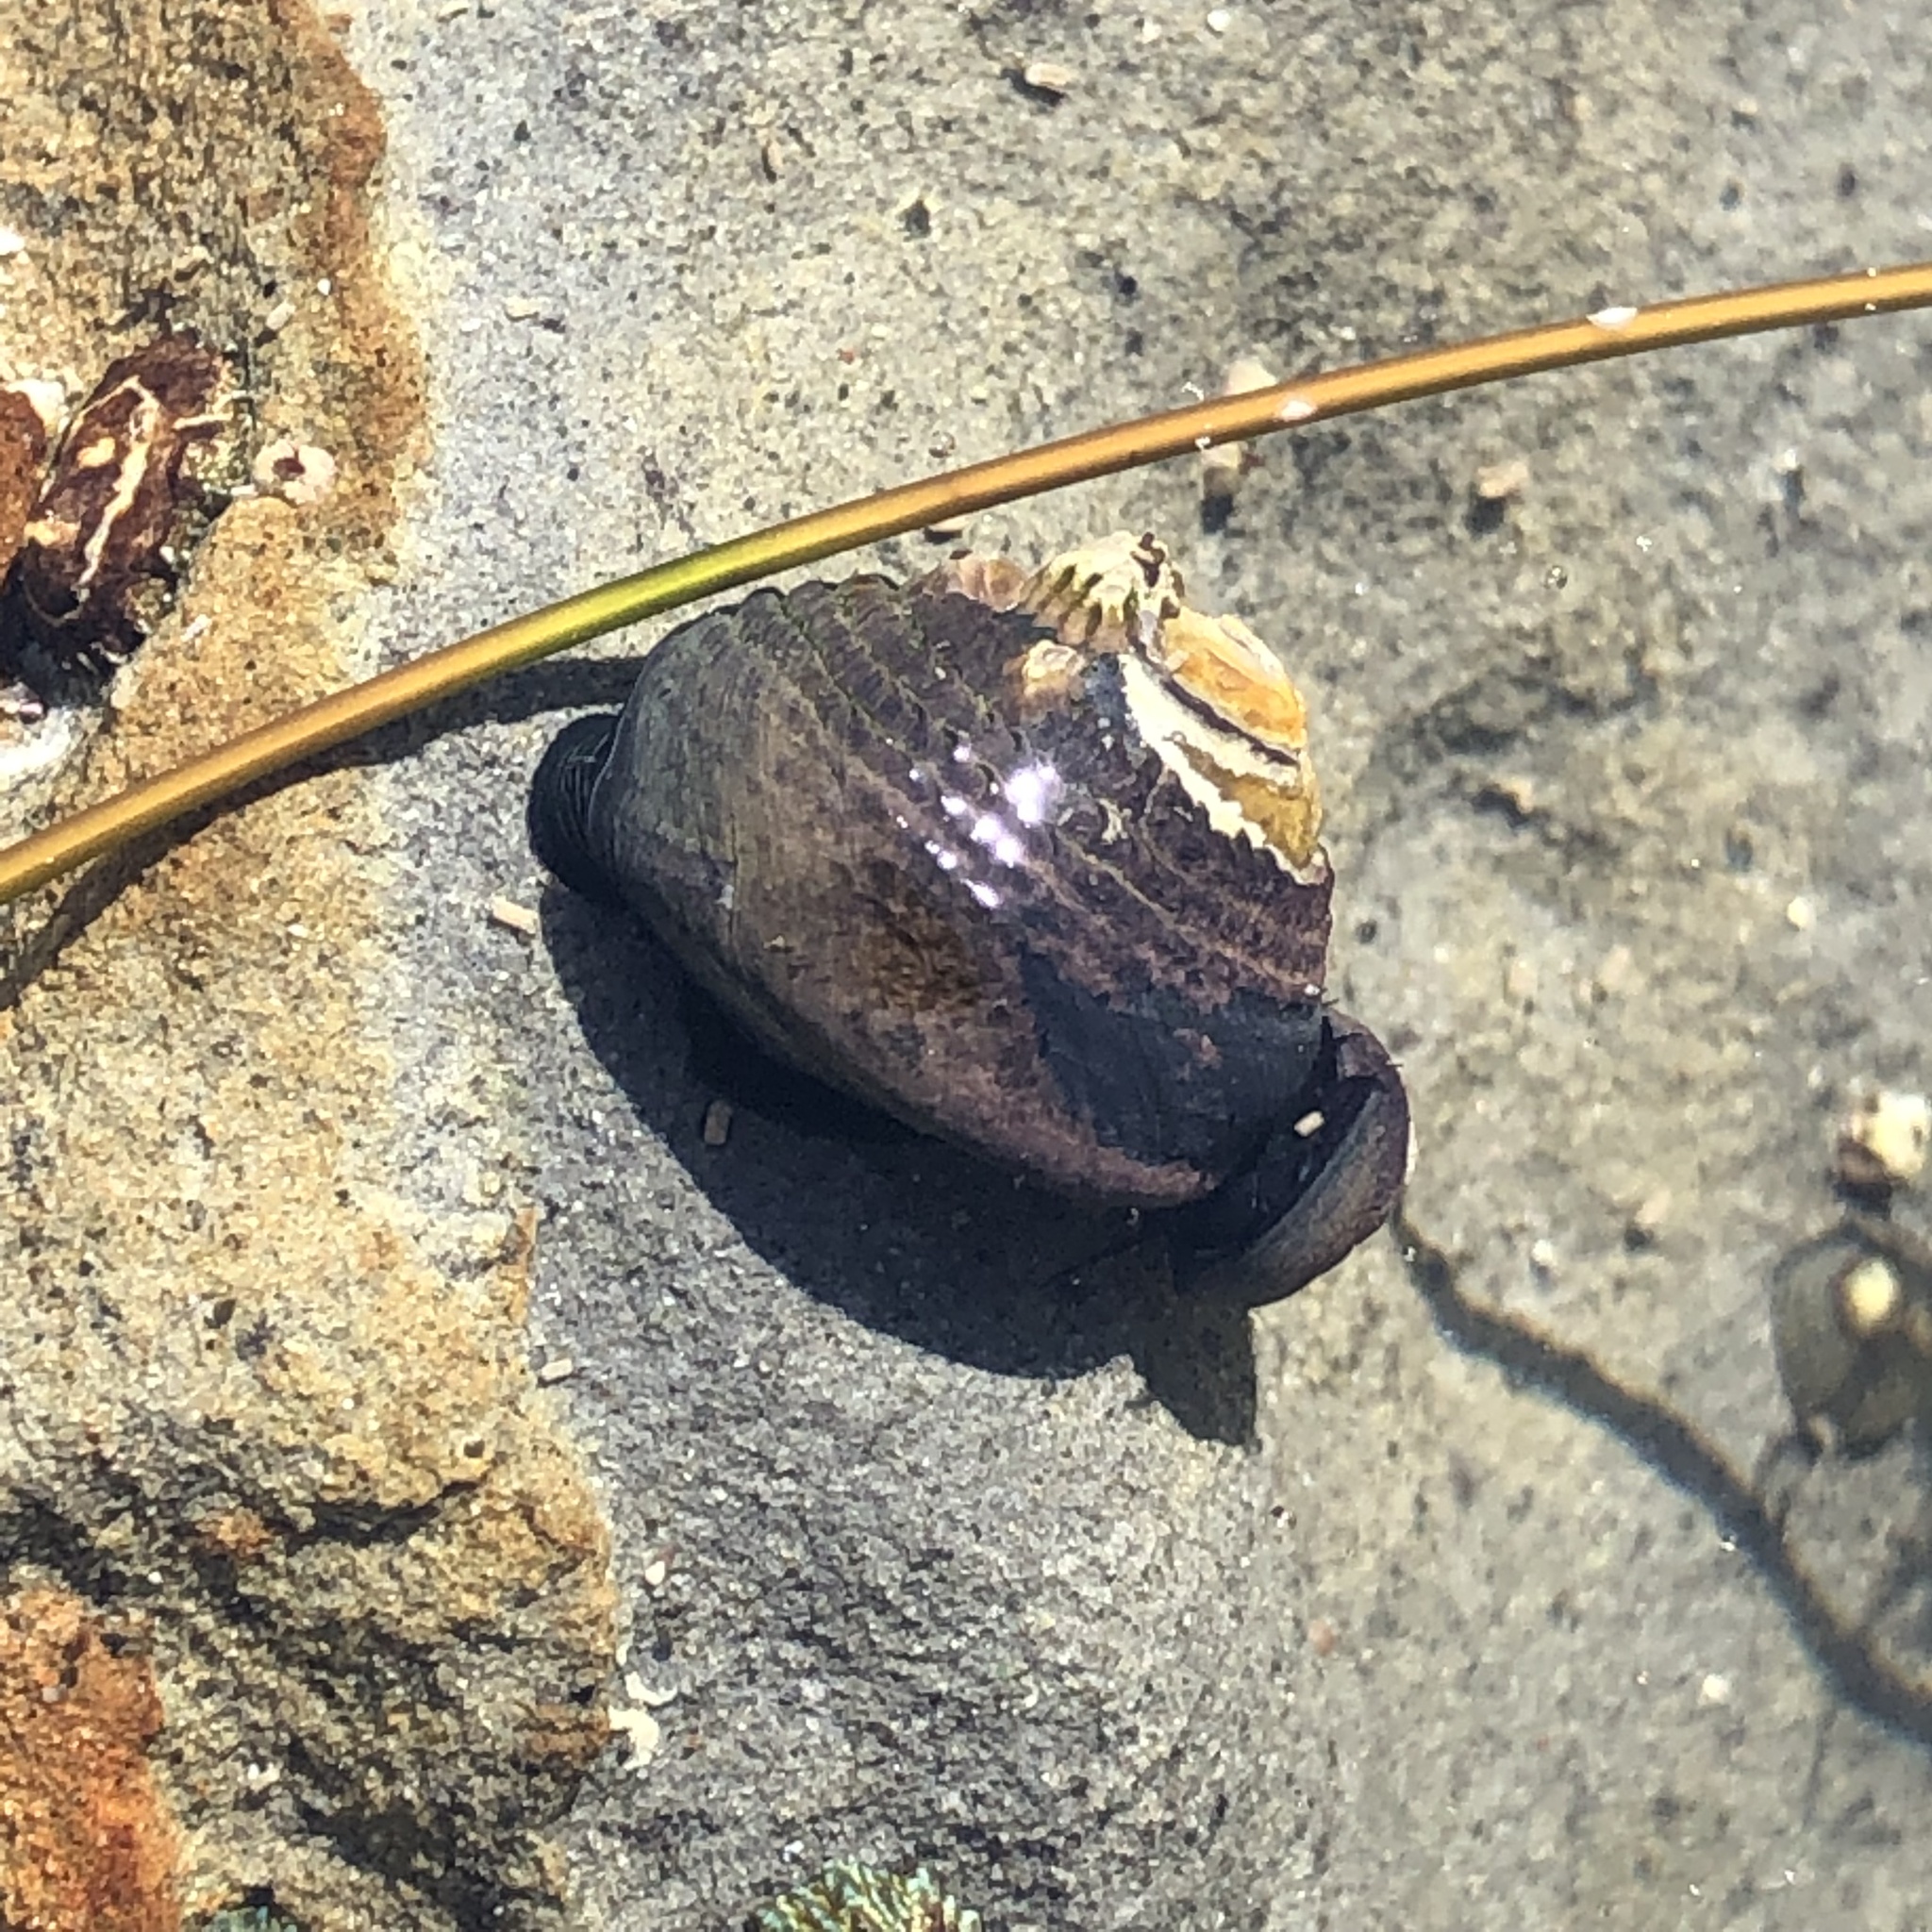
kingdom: Animalia
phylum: Mollusca
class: Gastropoda
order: Trochida
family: Tegulidae
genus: Tegula
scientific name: Tegula funebralis
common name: Black tegula
